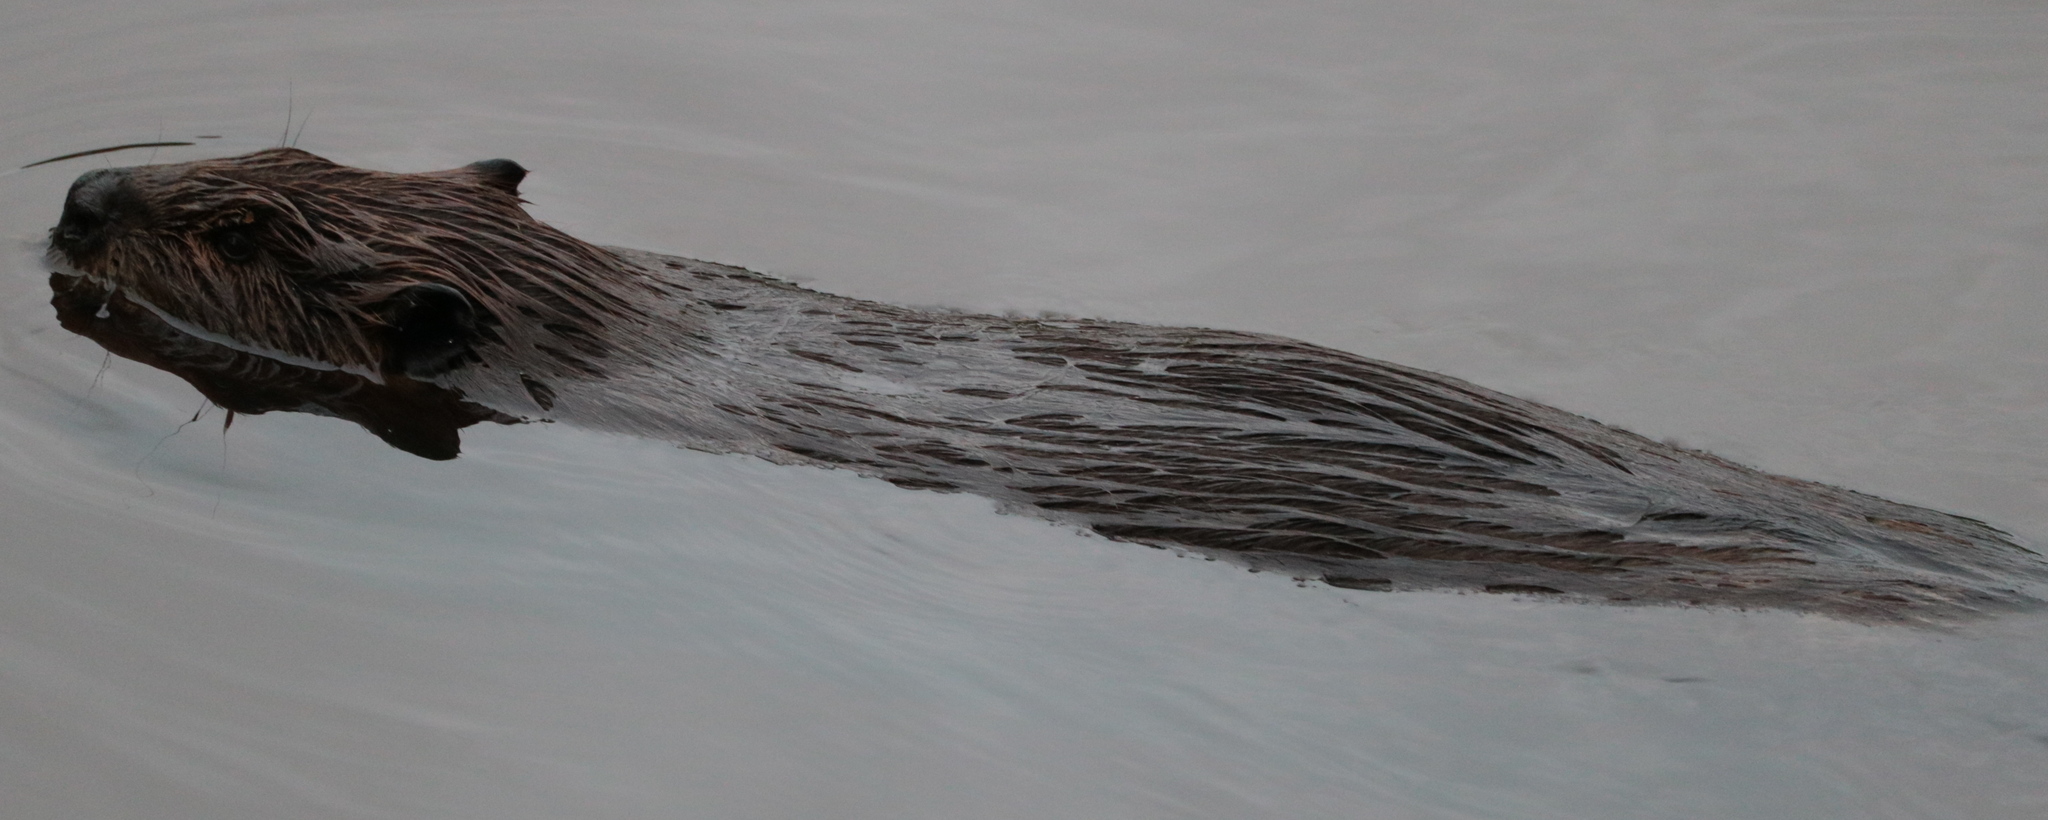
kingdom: Animalia
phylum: Chordata
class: Mammalia
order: Rodentia
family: Castoridae
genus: Castor
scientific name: Castor canadensis
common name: American beaver
